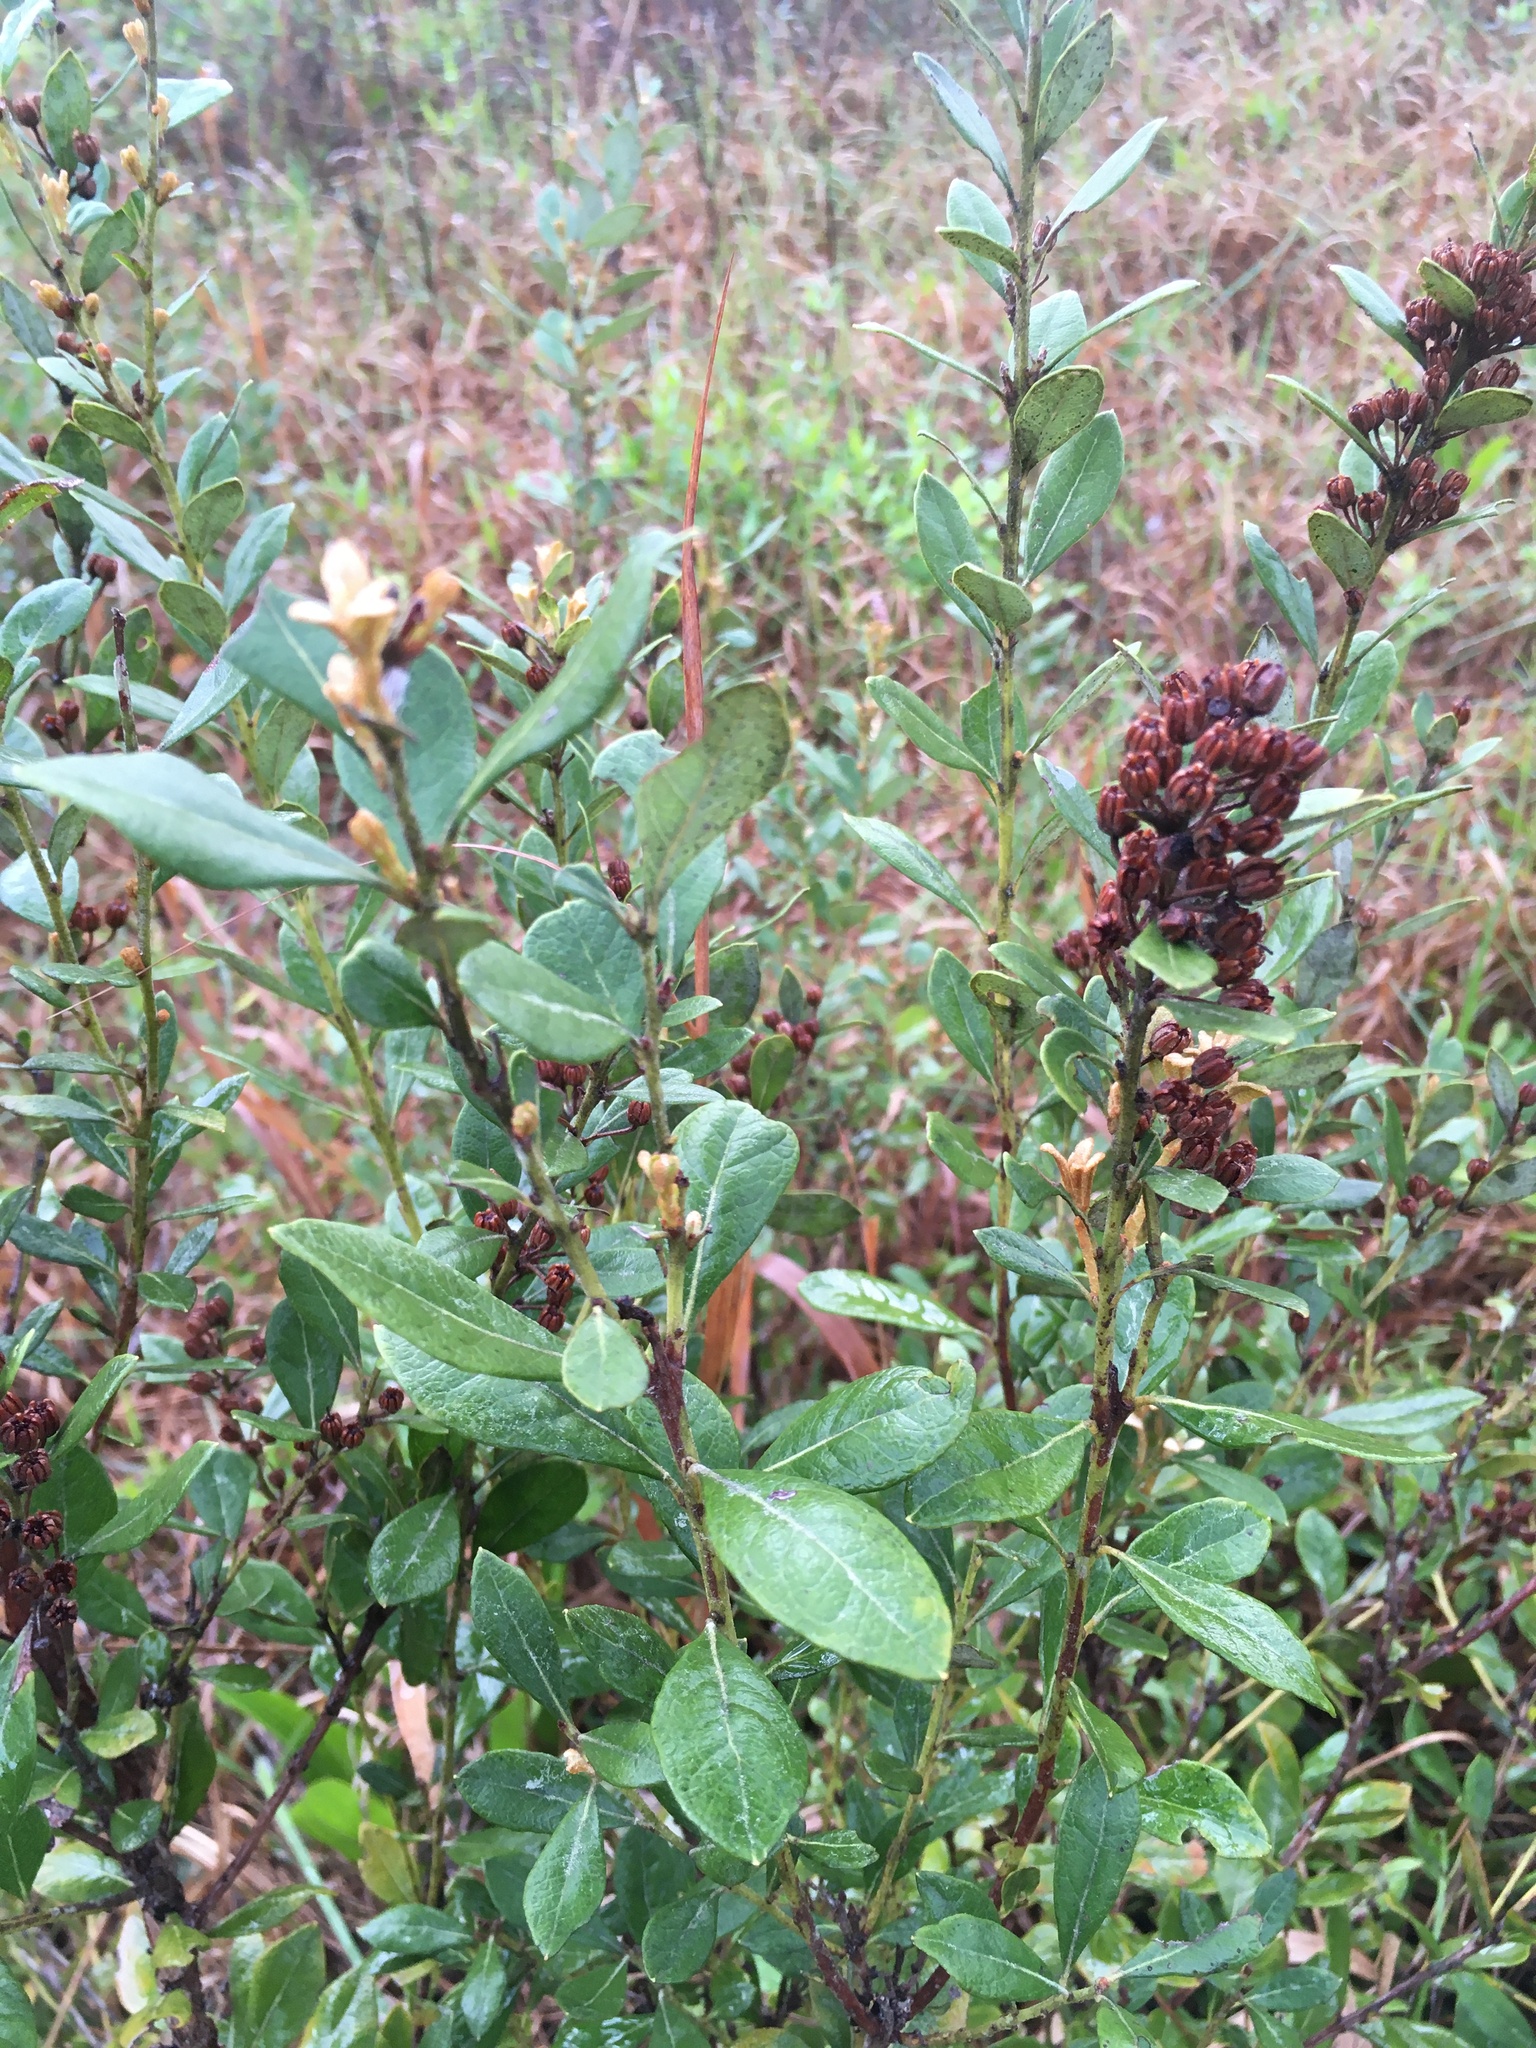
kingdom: Plantae
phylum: Tracheophyta
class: Magnoliopsida
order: Ericales
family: Ericaceae
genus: Lyonia
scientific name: Lyonia fruticosa
